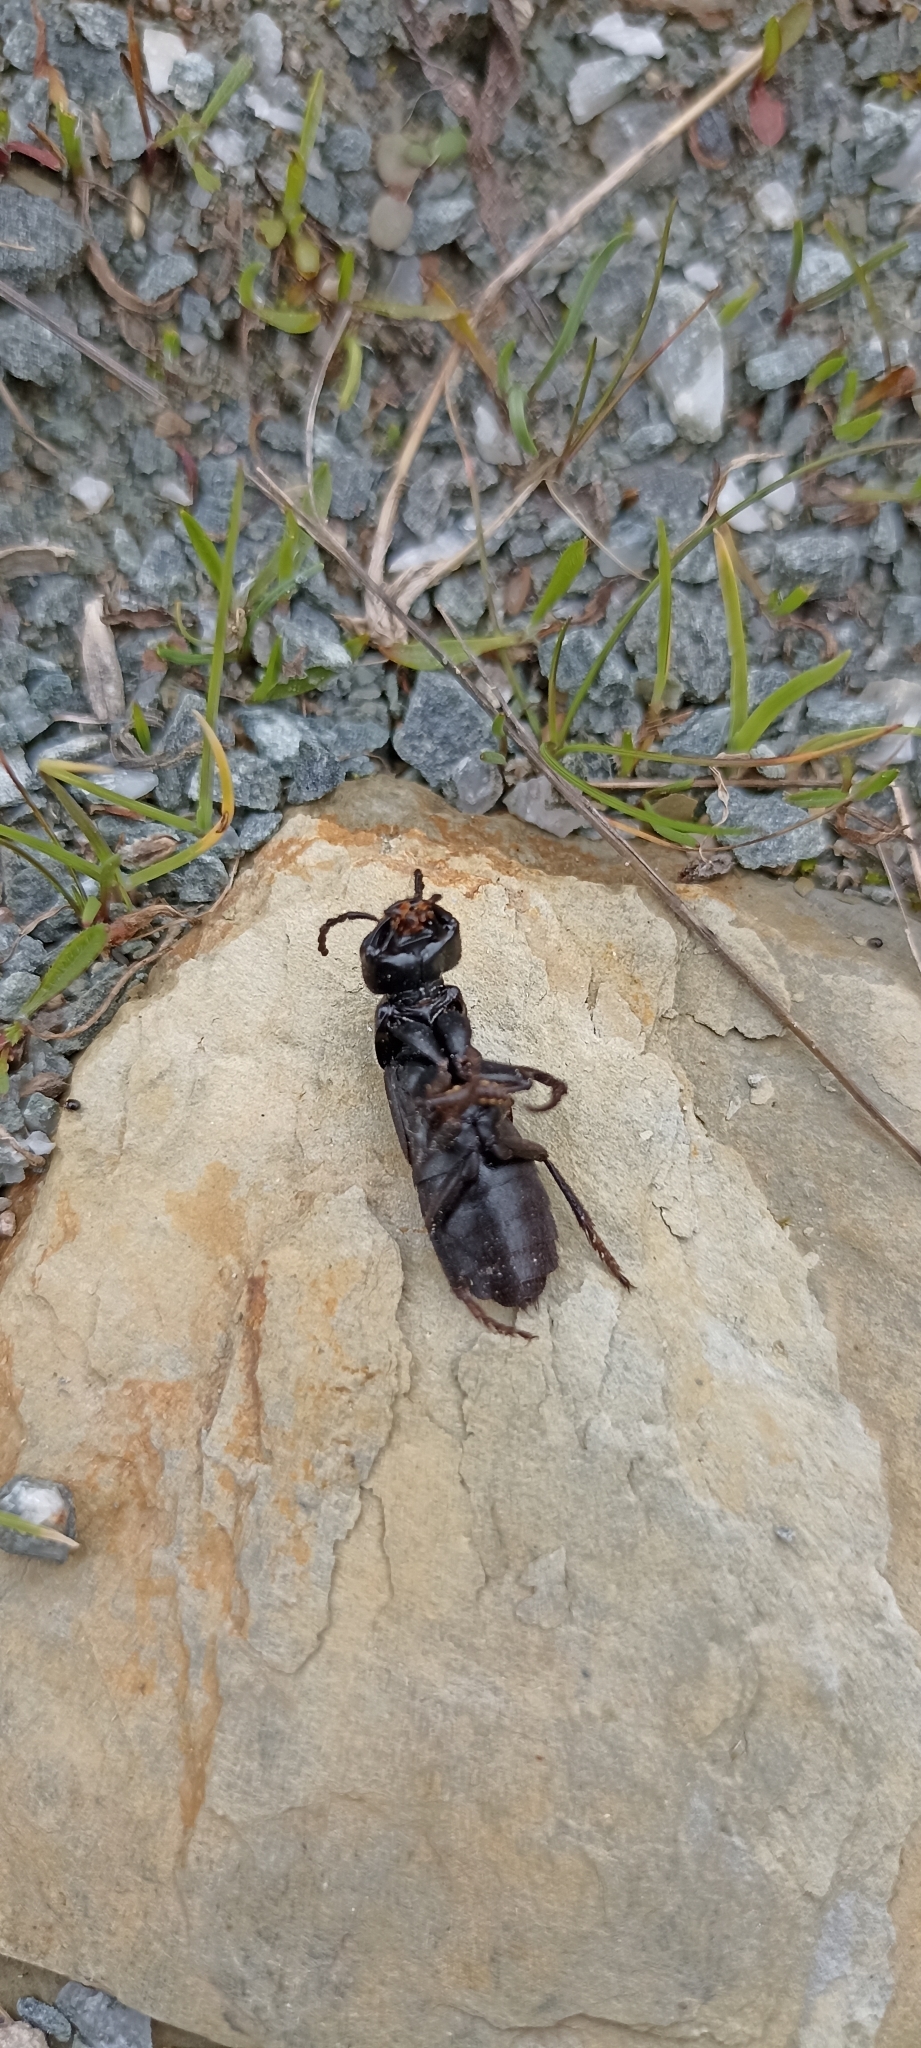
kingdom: Animalia
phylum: Arthropoda
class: Insecta
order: Coleoptera
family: Staphylinidae
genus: Ocypus
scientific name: Ocypus olens
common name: Devil's coach-horse
